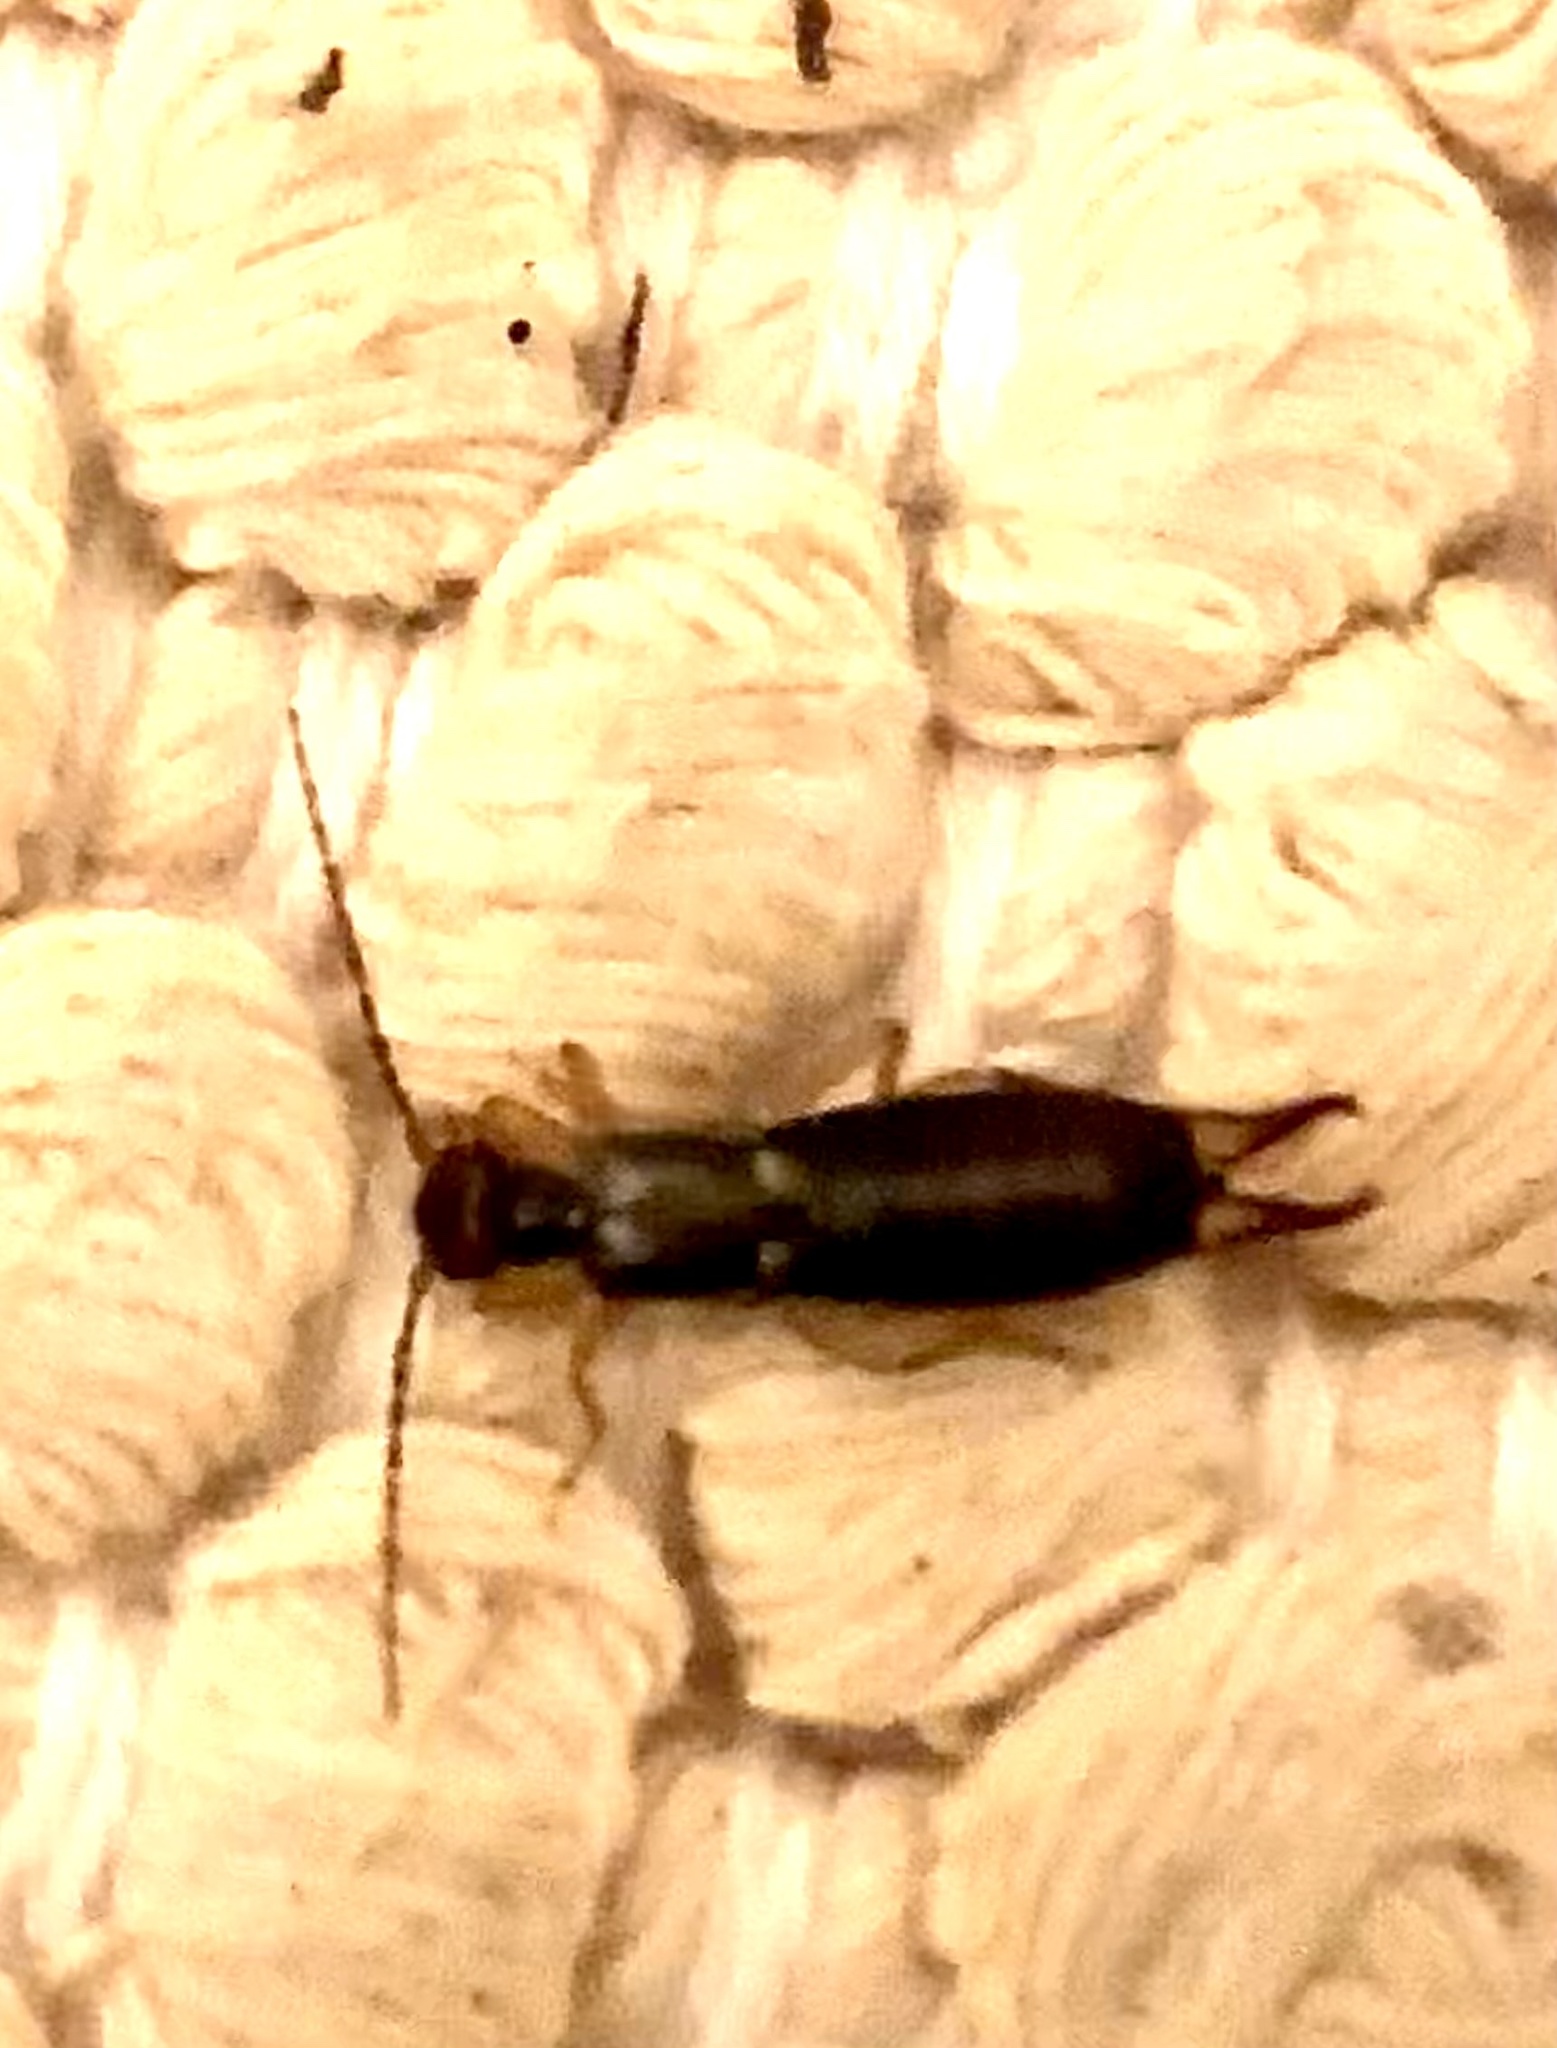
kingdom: Animalia
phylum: Arthropoda
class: Insecta
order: Dermaptera
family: Forficulidae
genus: Forficula
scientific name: Forficula
